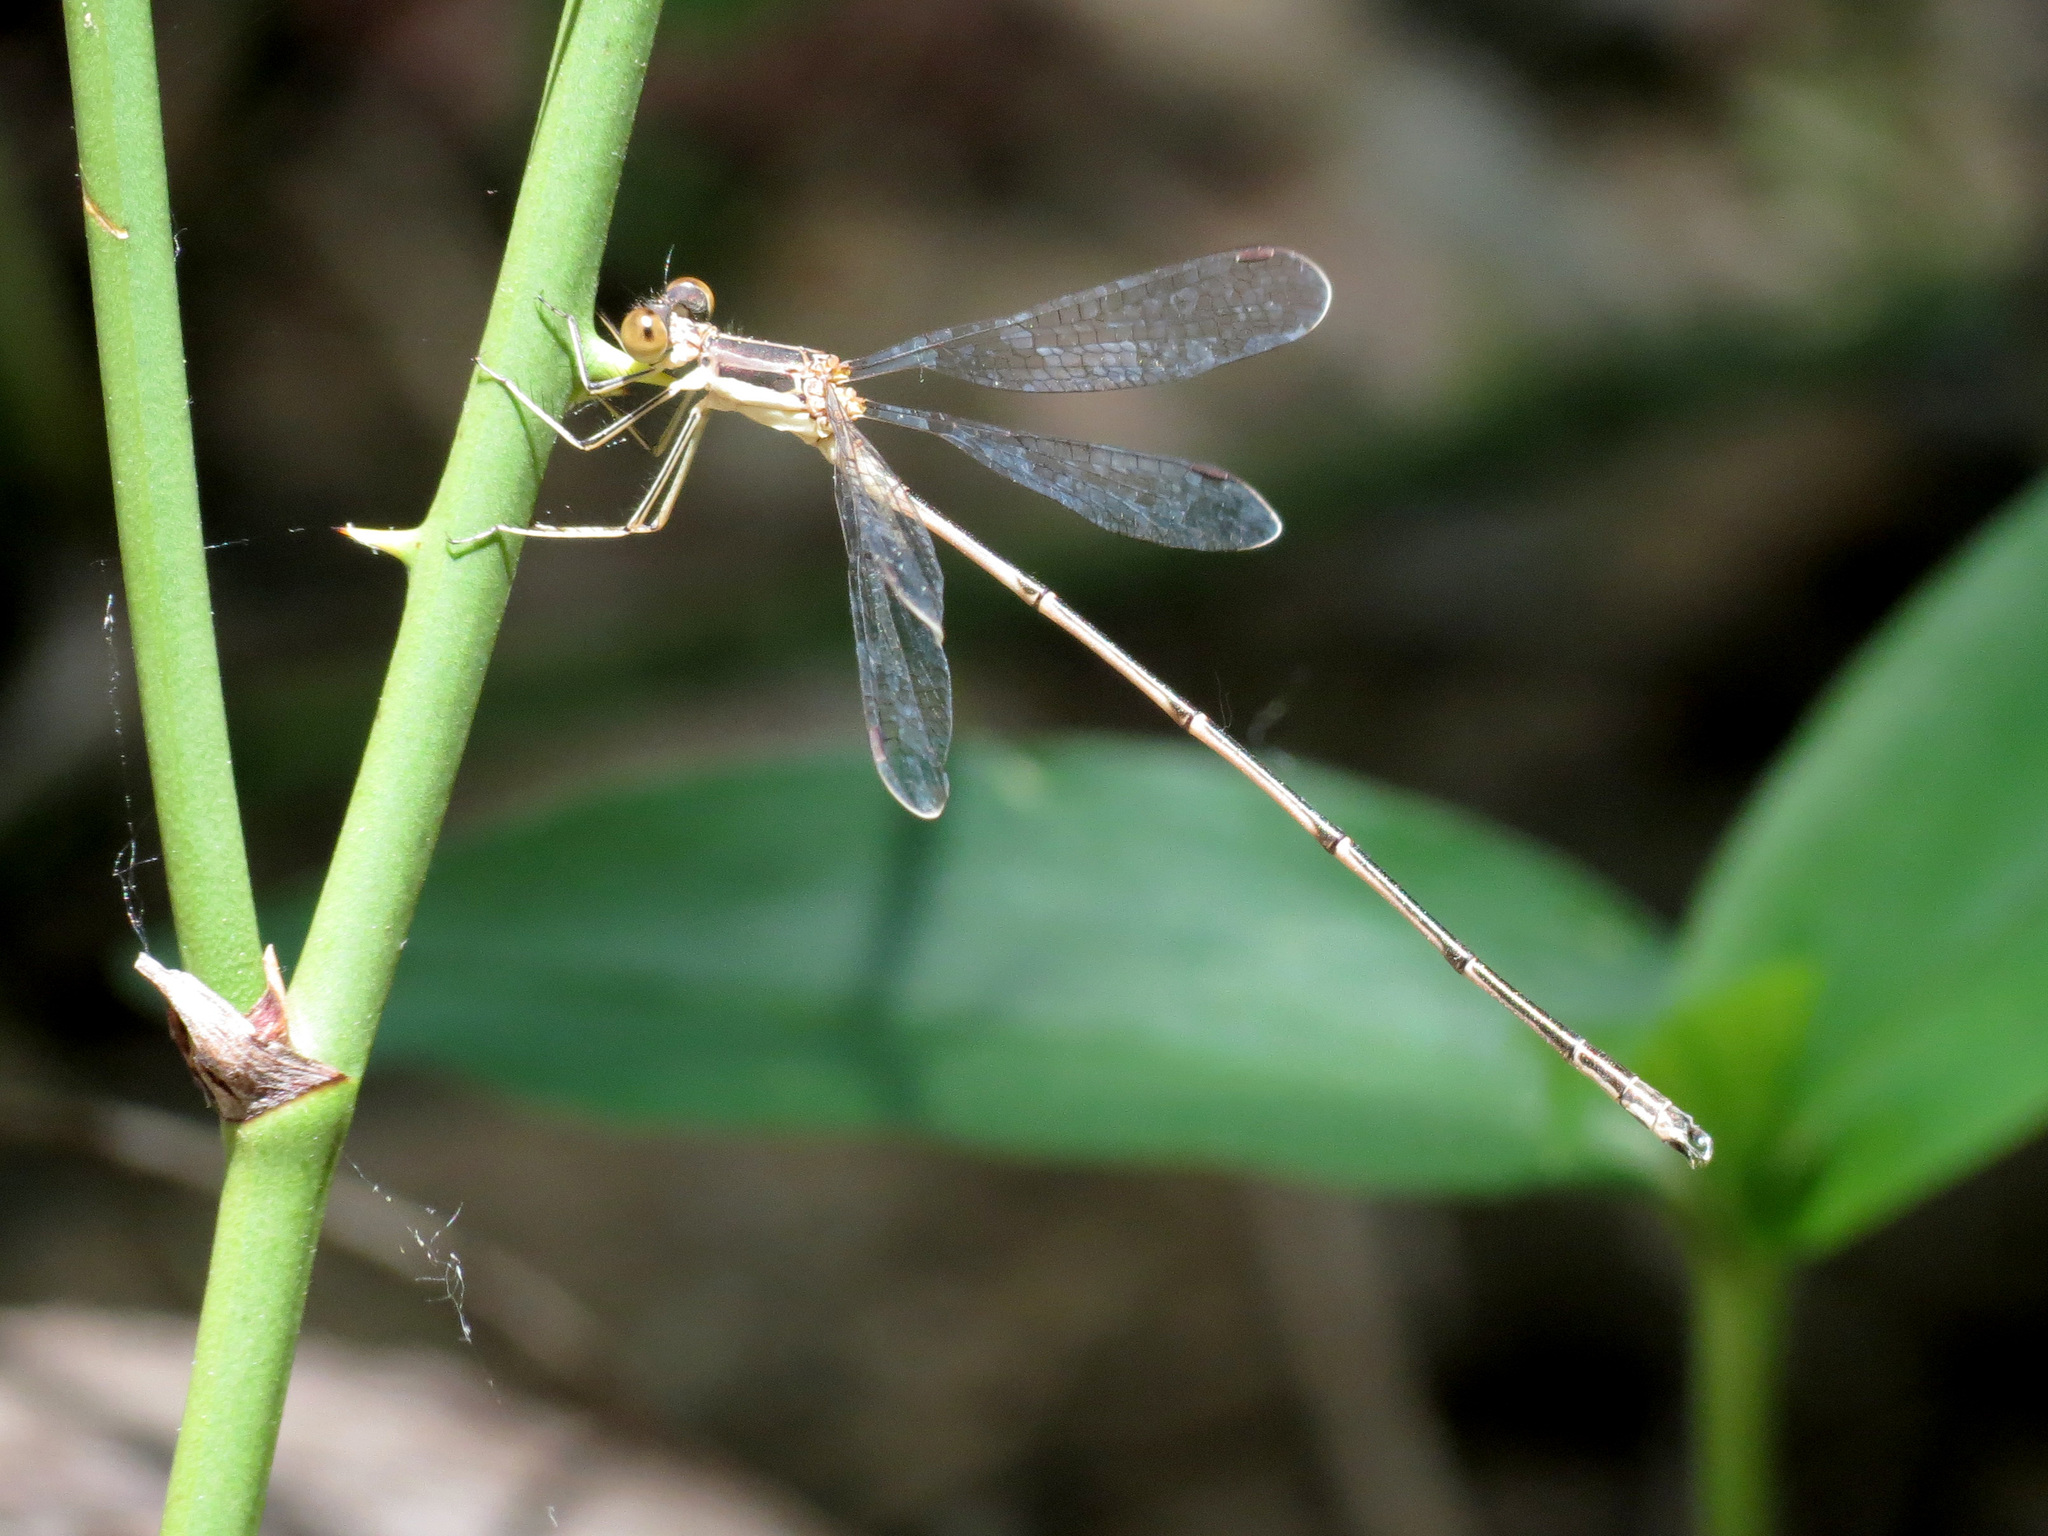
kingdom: Animalia
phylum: Arthropoda
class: Insecta
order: Odonata
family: Lestidae
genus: Lestes
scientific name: Lestes rectangularis
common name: Slender spreadwing
